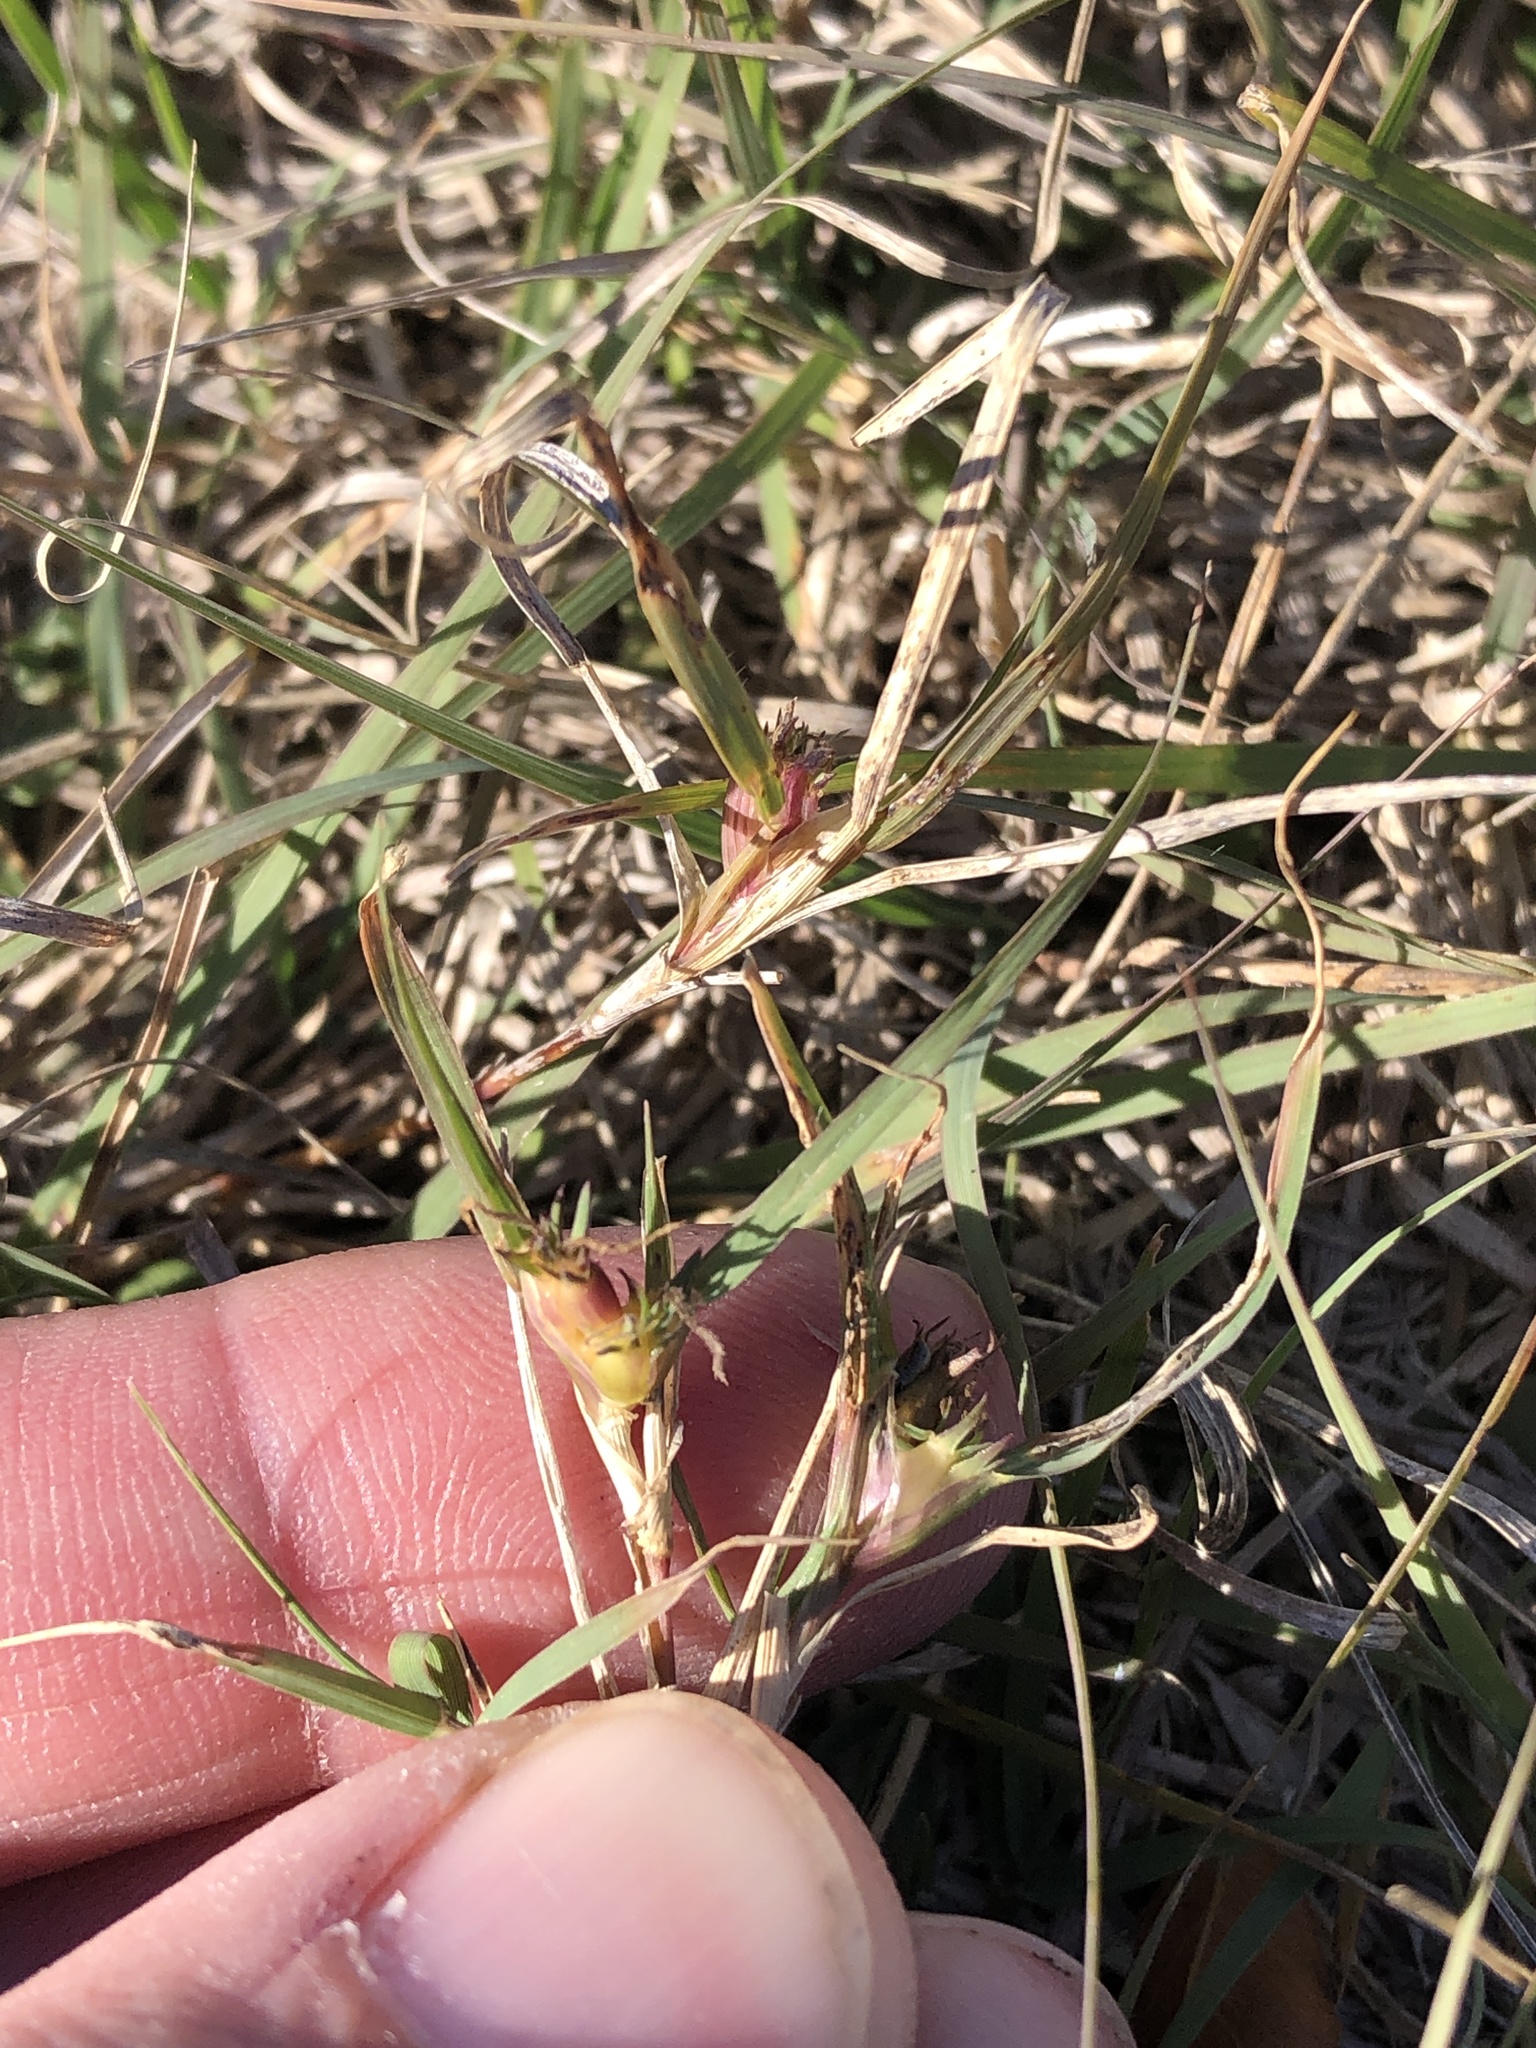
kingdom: Plantae
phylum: Tracheophyta
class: Liliopsida
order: Poales
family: Poaceae
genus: Bouteloua
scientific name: Bouteloua dactyloides
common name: Buffalo grass
